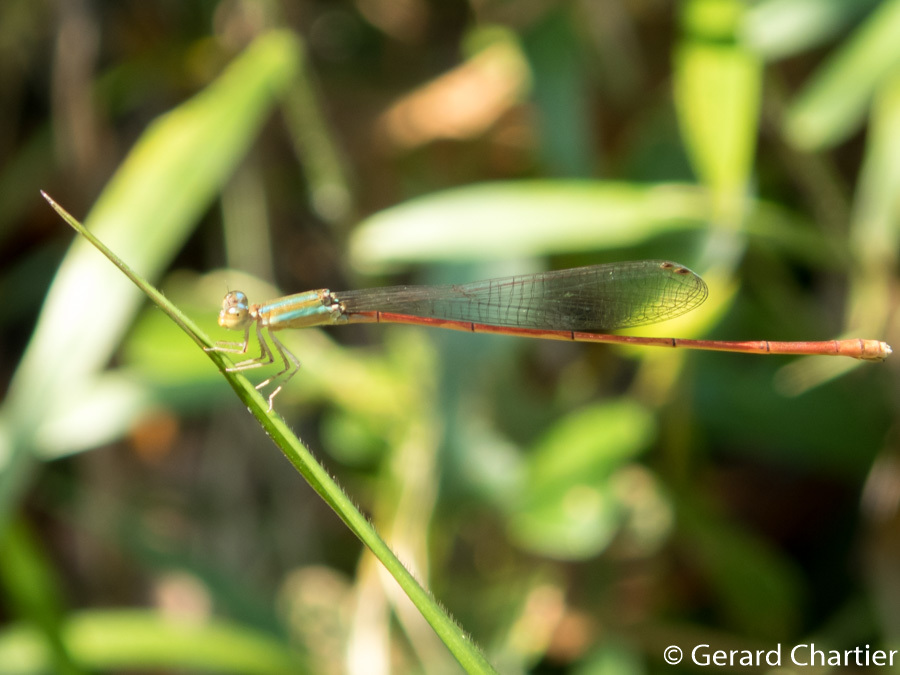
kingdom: Animalia
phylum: Arthropoda
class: Insecta
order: Odonata
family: Coenagrionidae
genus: Aciagrion
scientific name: Aciagrion pallidum
